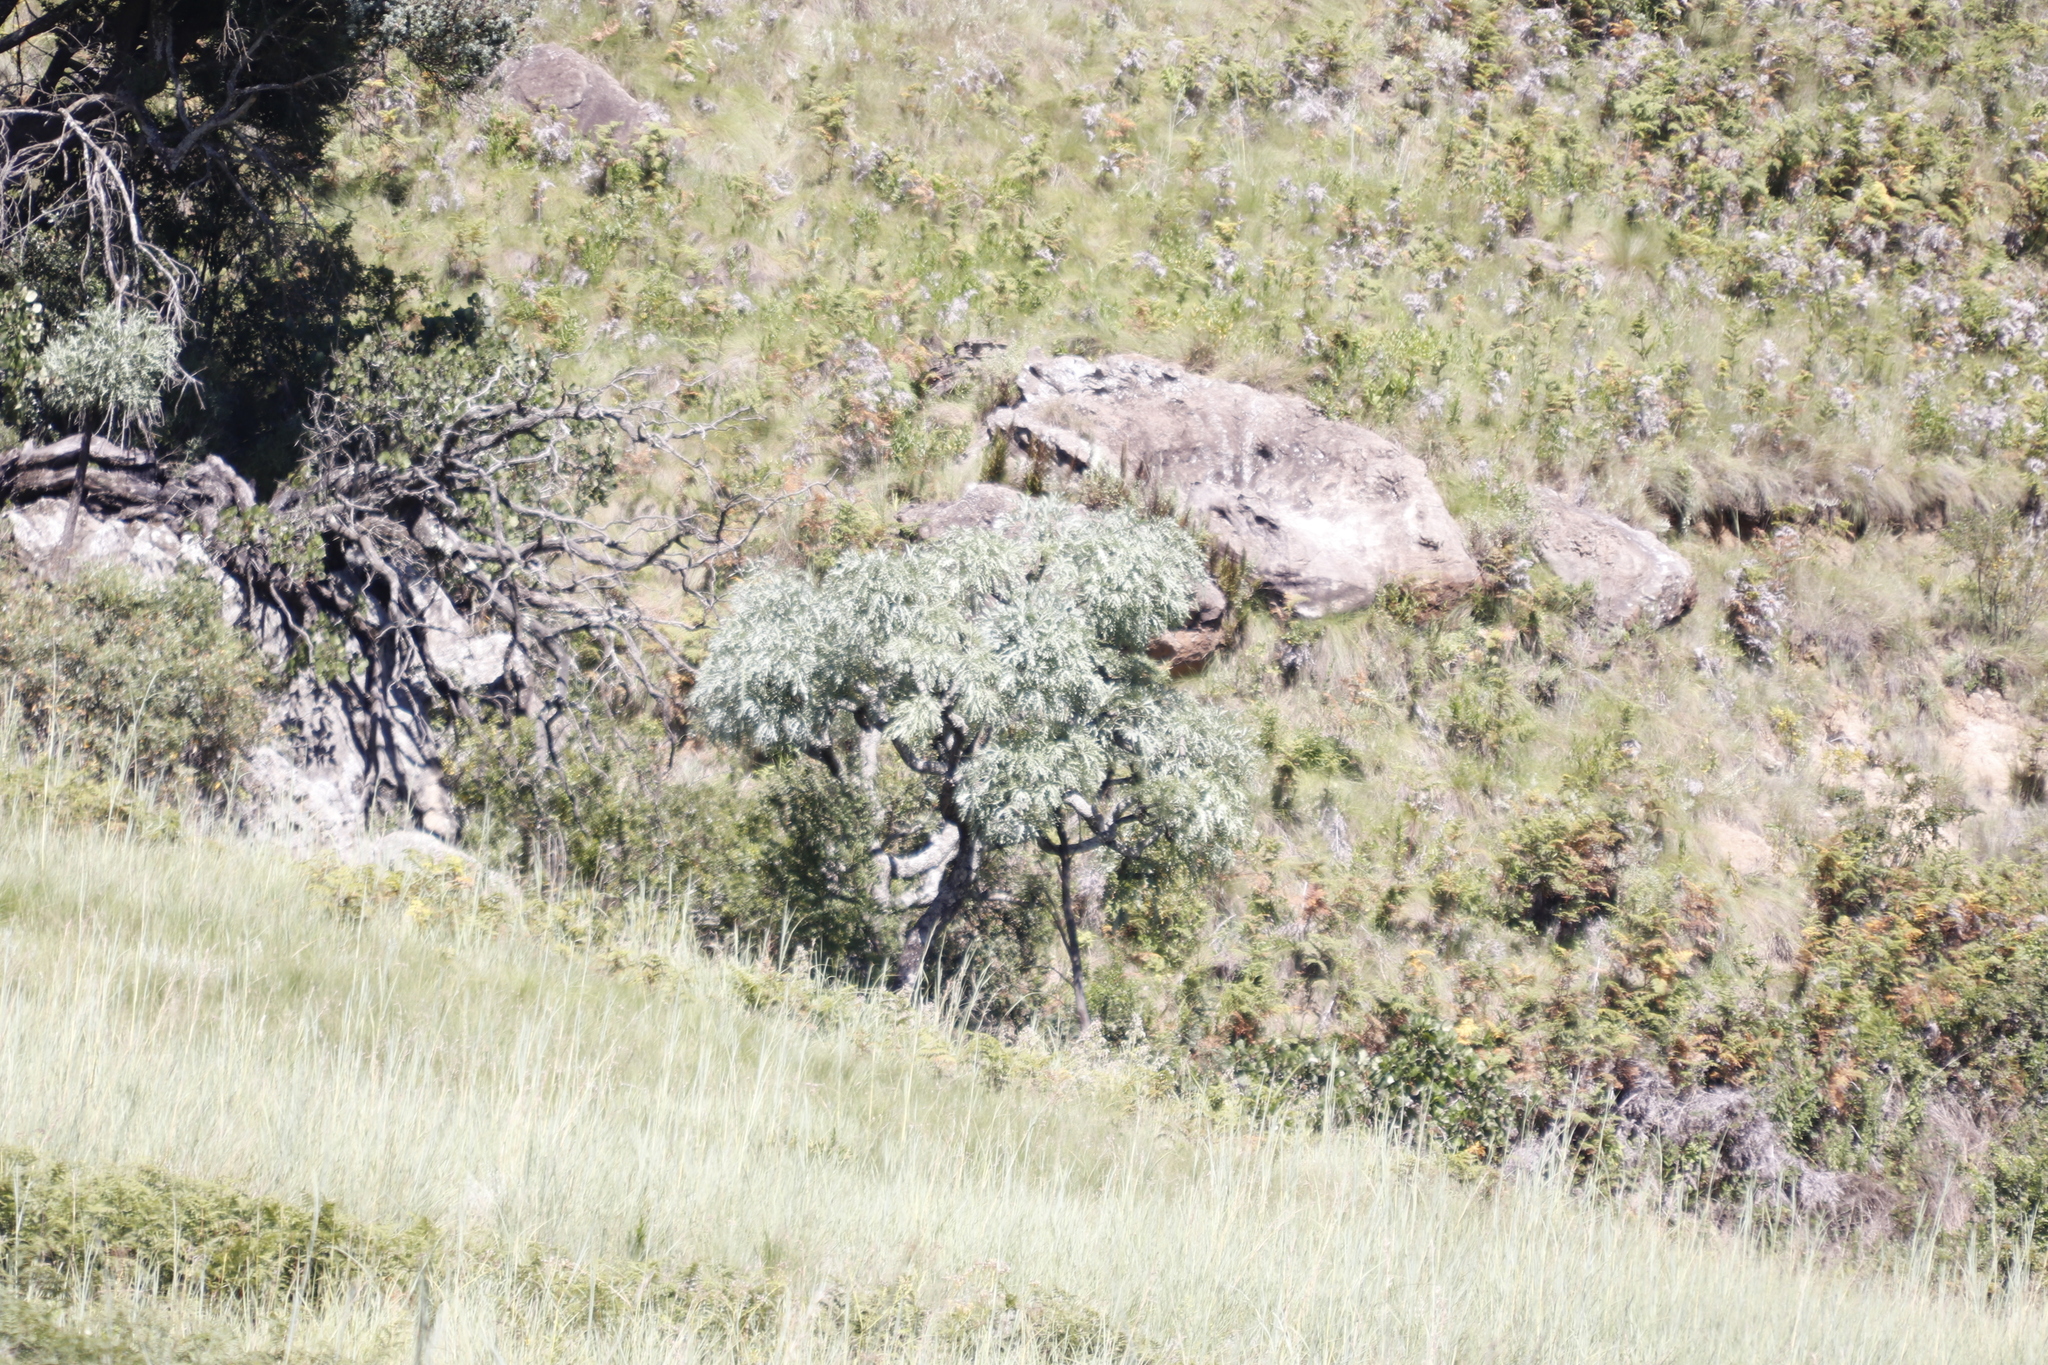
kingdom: Plantae
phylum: Tracheophyta
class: Magnoliopsida
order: Apiales
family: Araliaceae
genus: Cussonia
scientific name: Cussonia paniculata
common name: Cabbagetree
